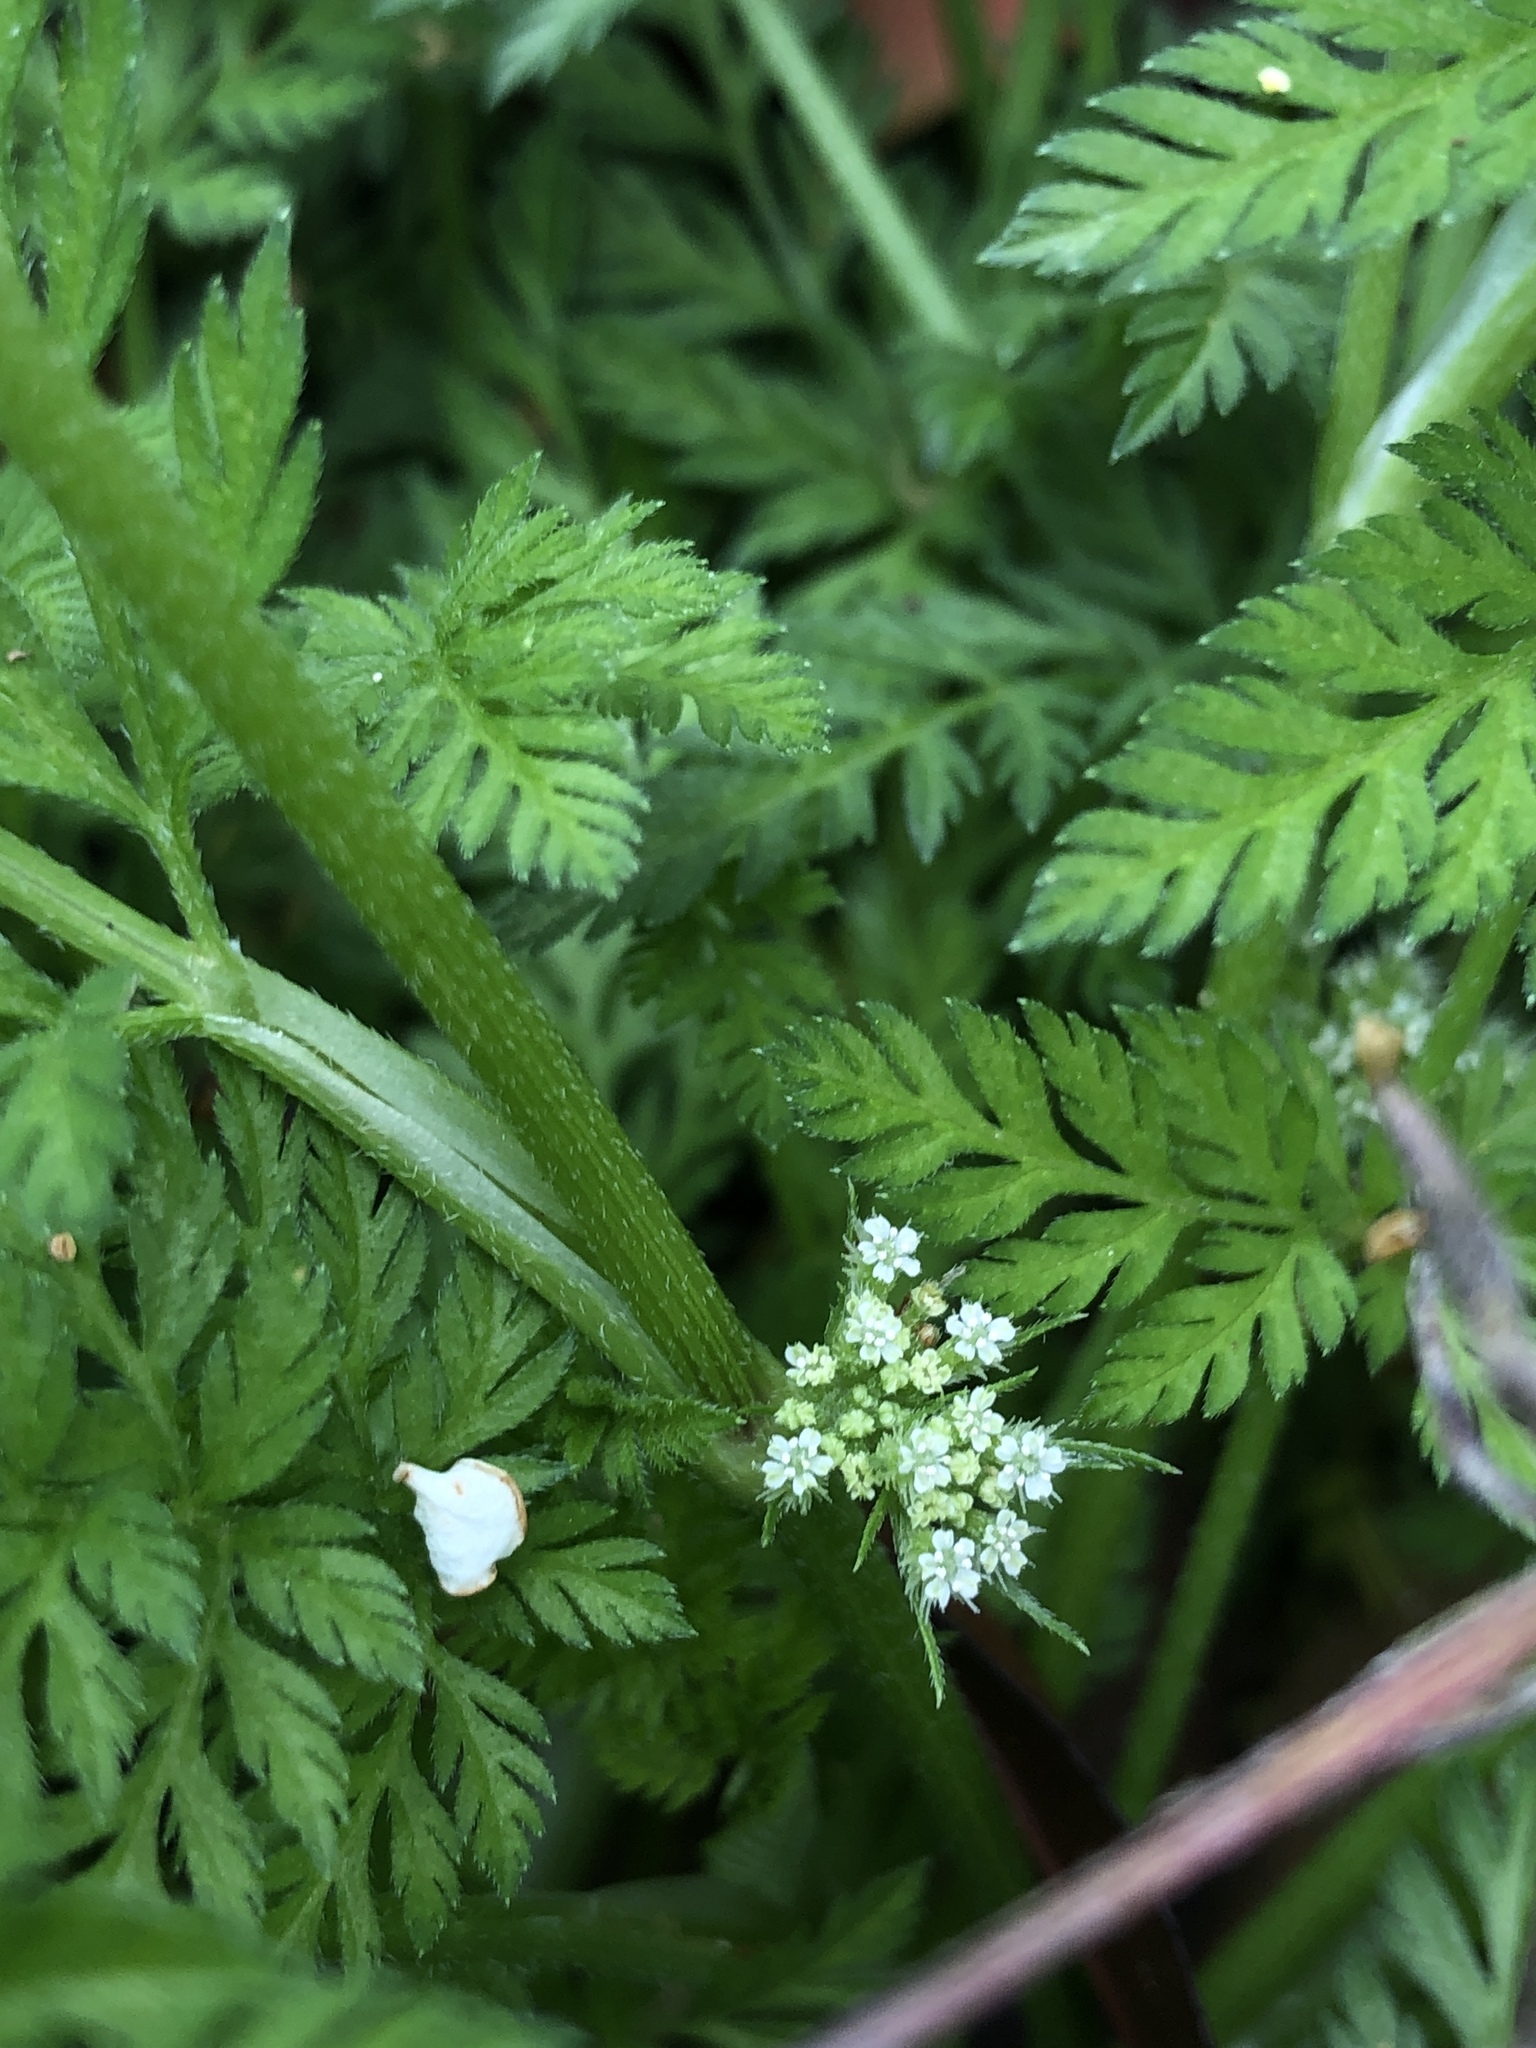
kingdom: Plantae
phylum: Tracheophyta
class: Magnoliopsida
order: Apiales
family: Apiaceae
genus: Torilis
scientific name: Torilis nodosa
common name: Knotted hedge-parsley
